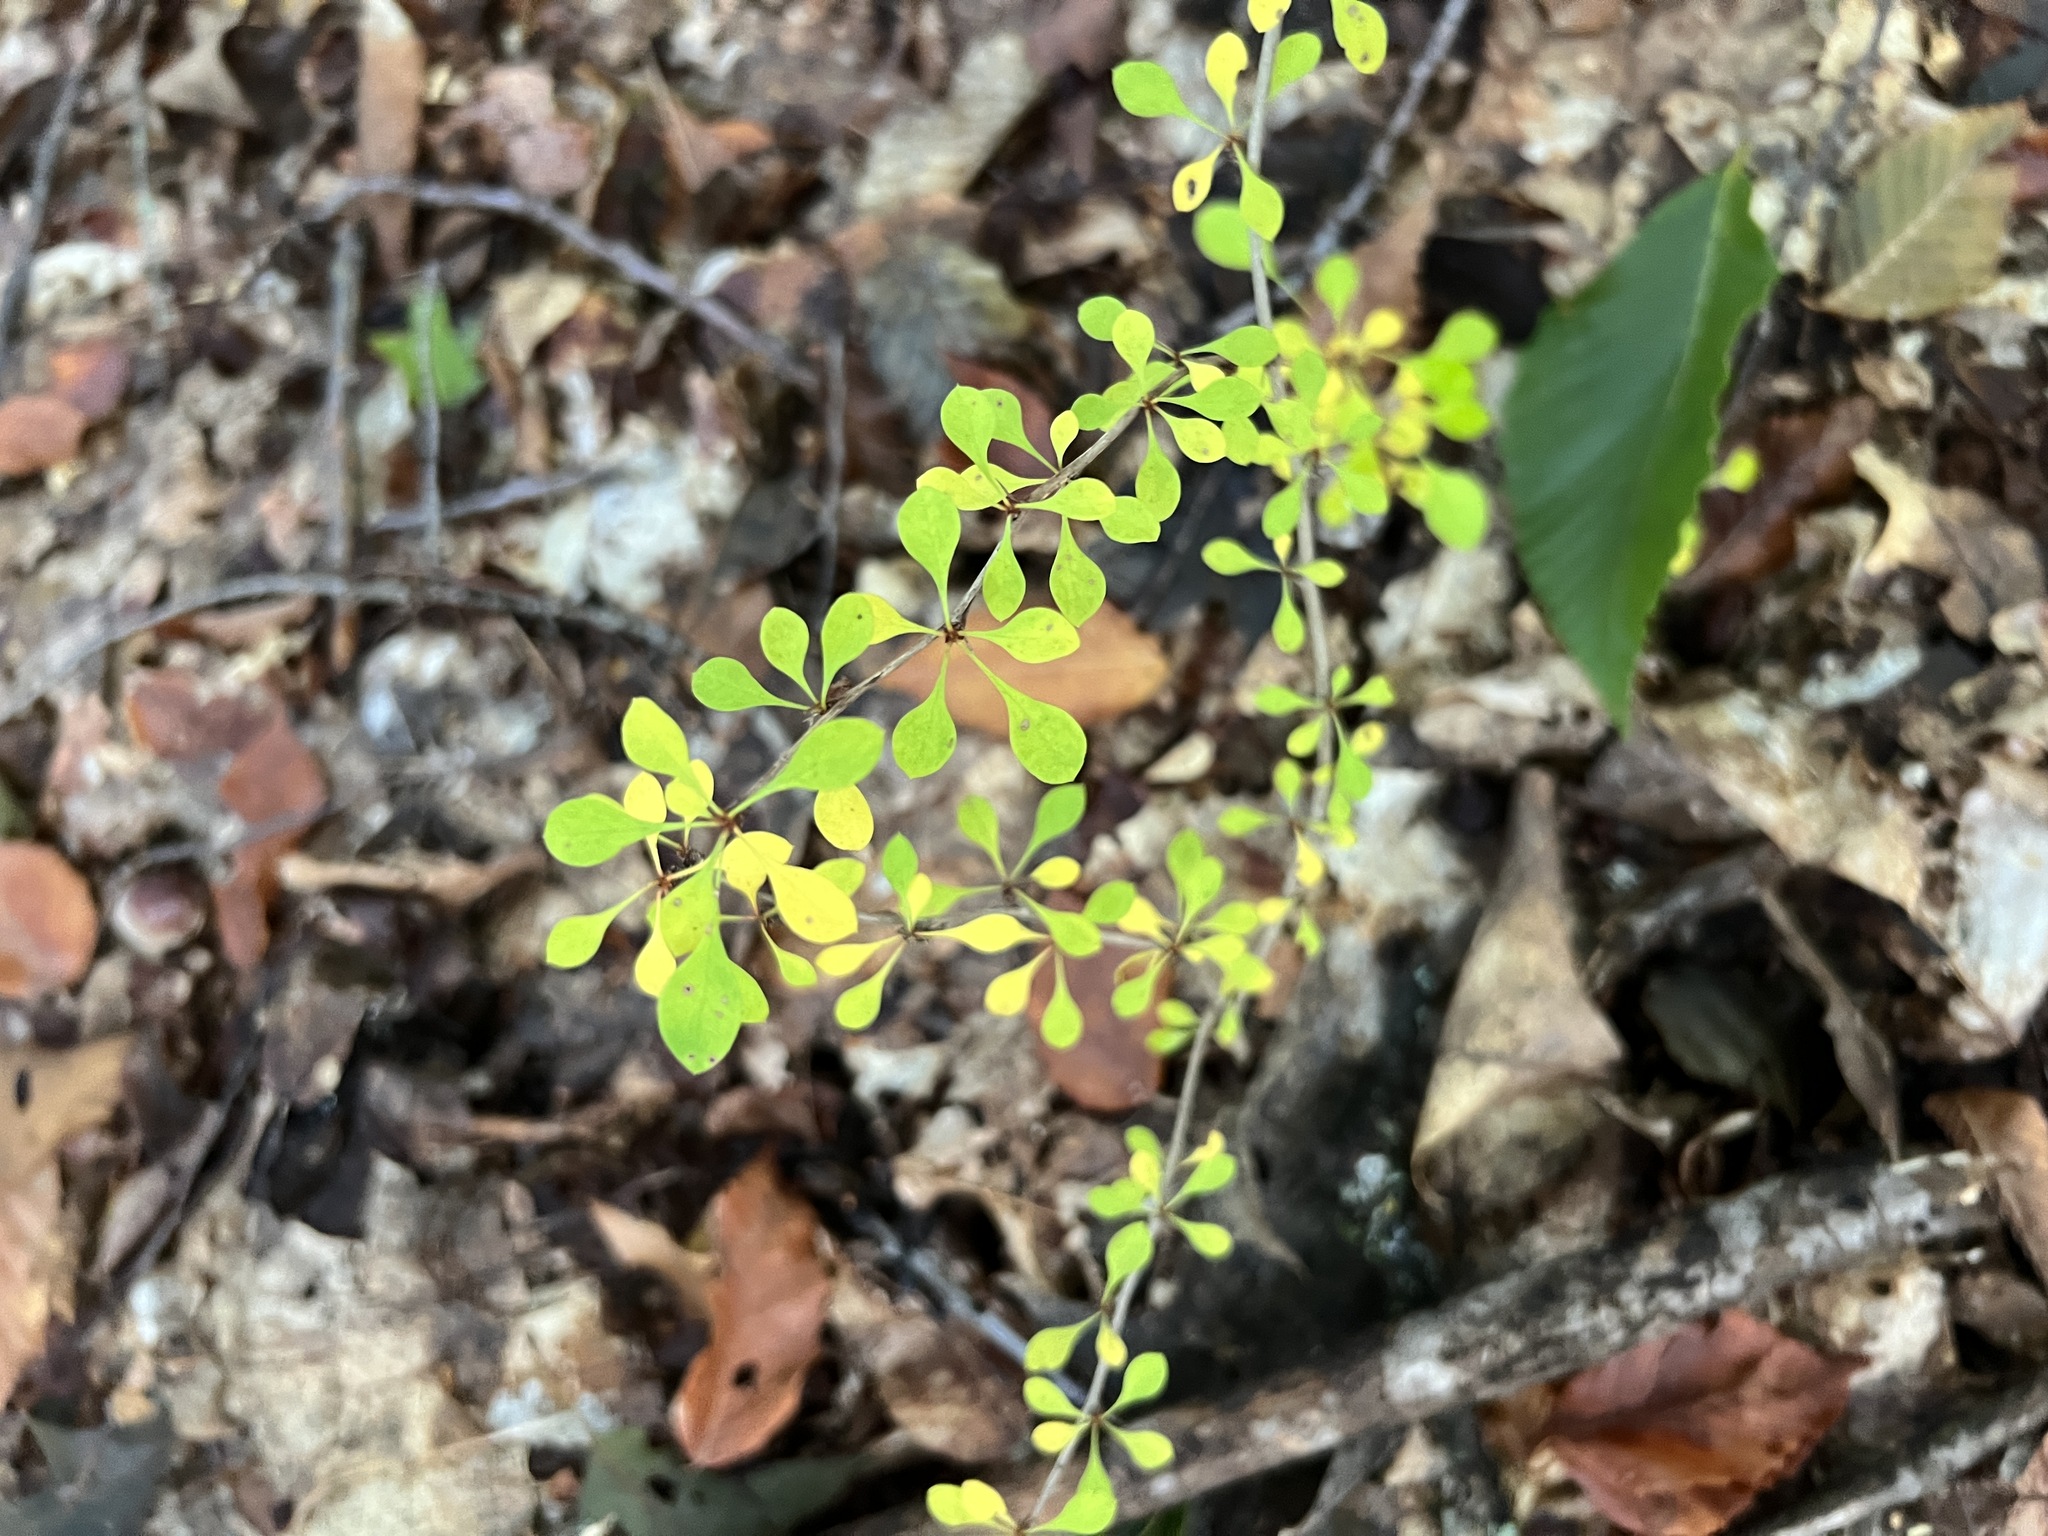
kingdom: Plantae
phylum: Tracheophyta
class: Magnoliopsida
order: Ranunculales
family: Berberidaceae
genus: Berberis
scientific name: Berberis thunbergii
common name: Japanese barberry
